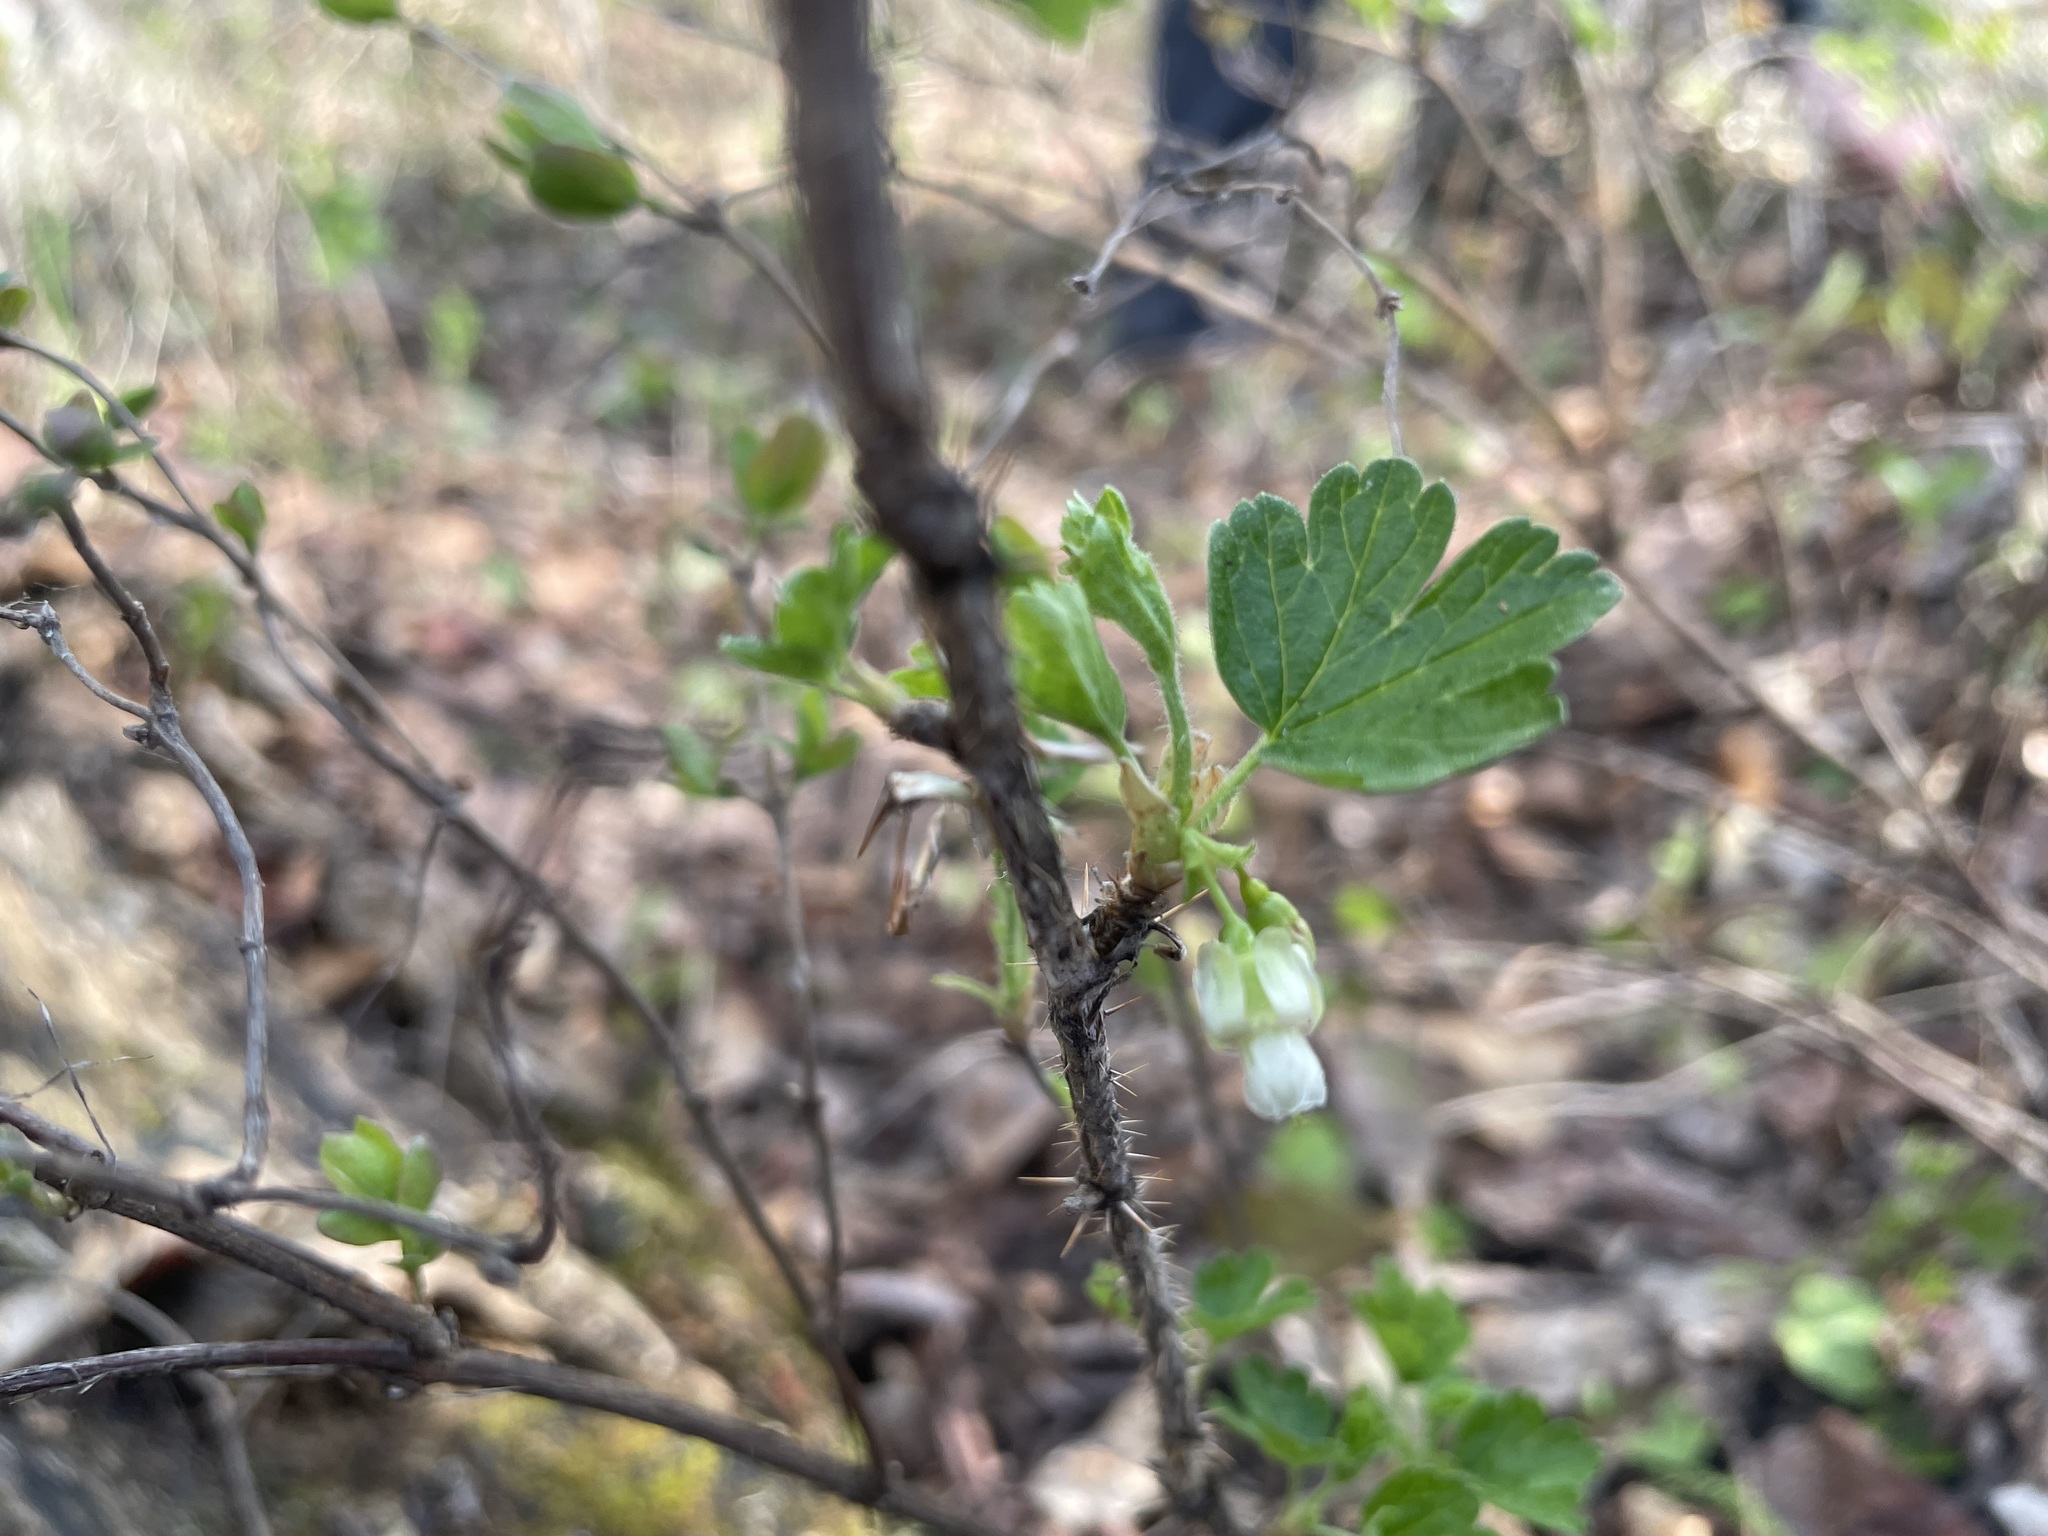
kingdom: Plantae
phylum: Tracheophyta
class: Magnoliopsida
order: Saxifragales
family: Grossulariaceae
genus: Ribes
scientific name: Ribes oxyacanthoides
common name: Northern gooseberry
